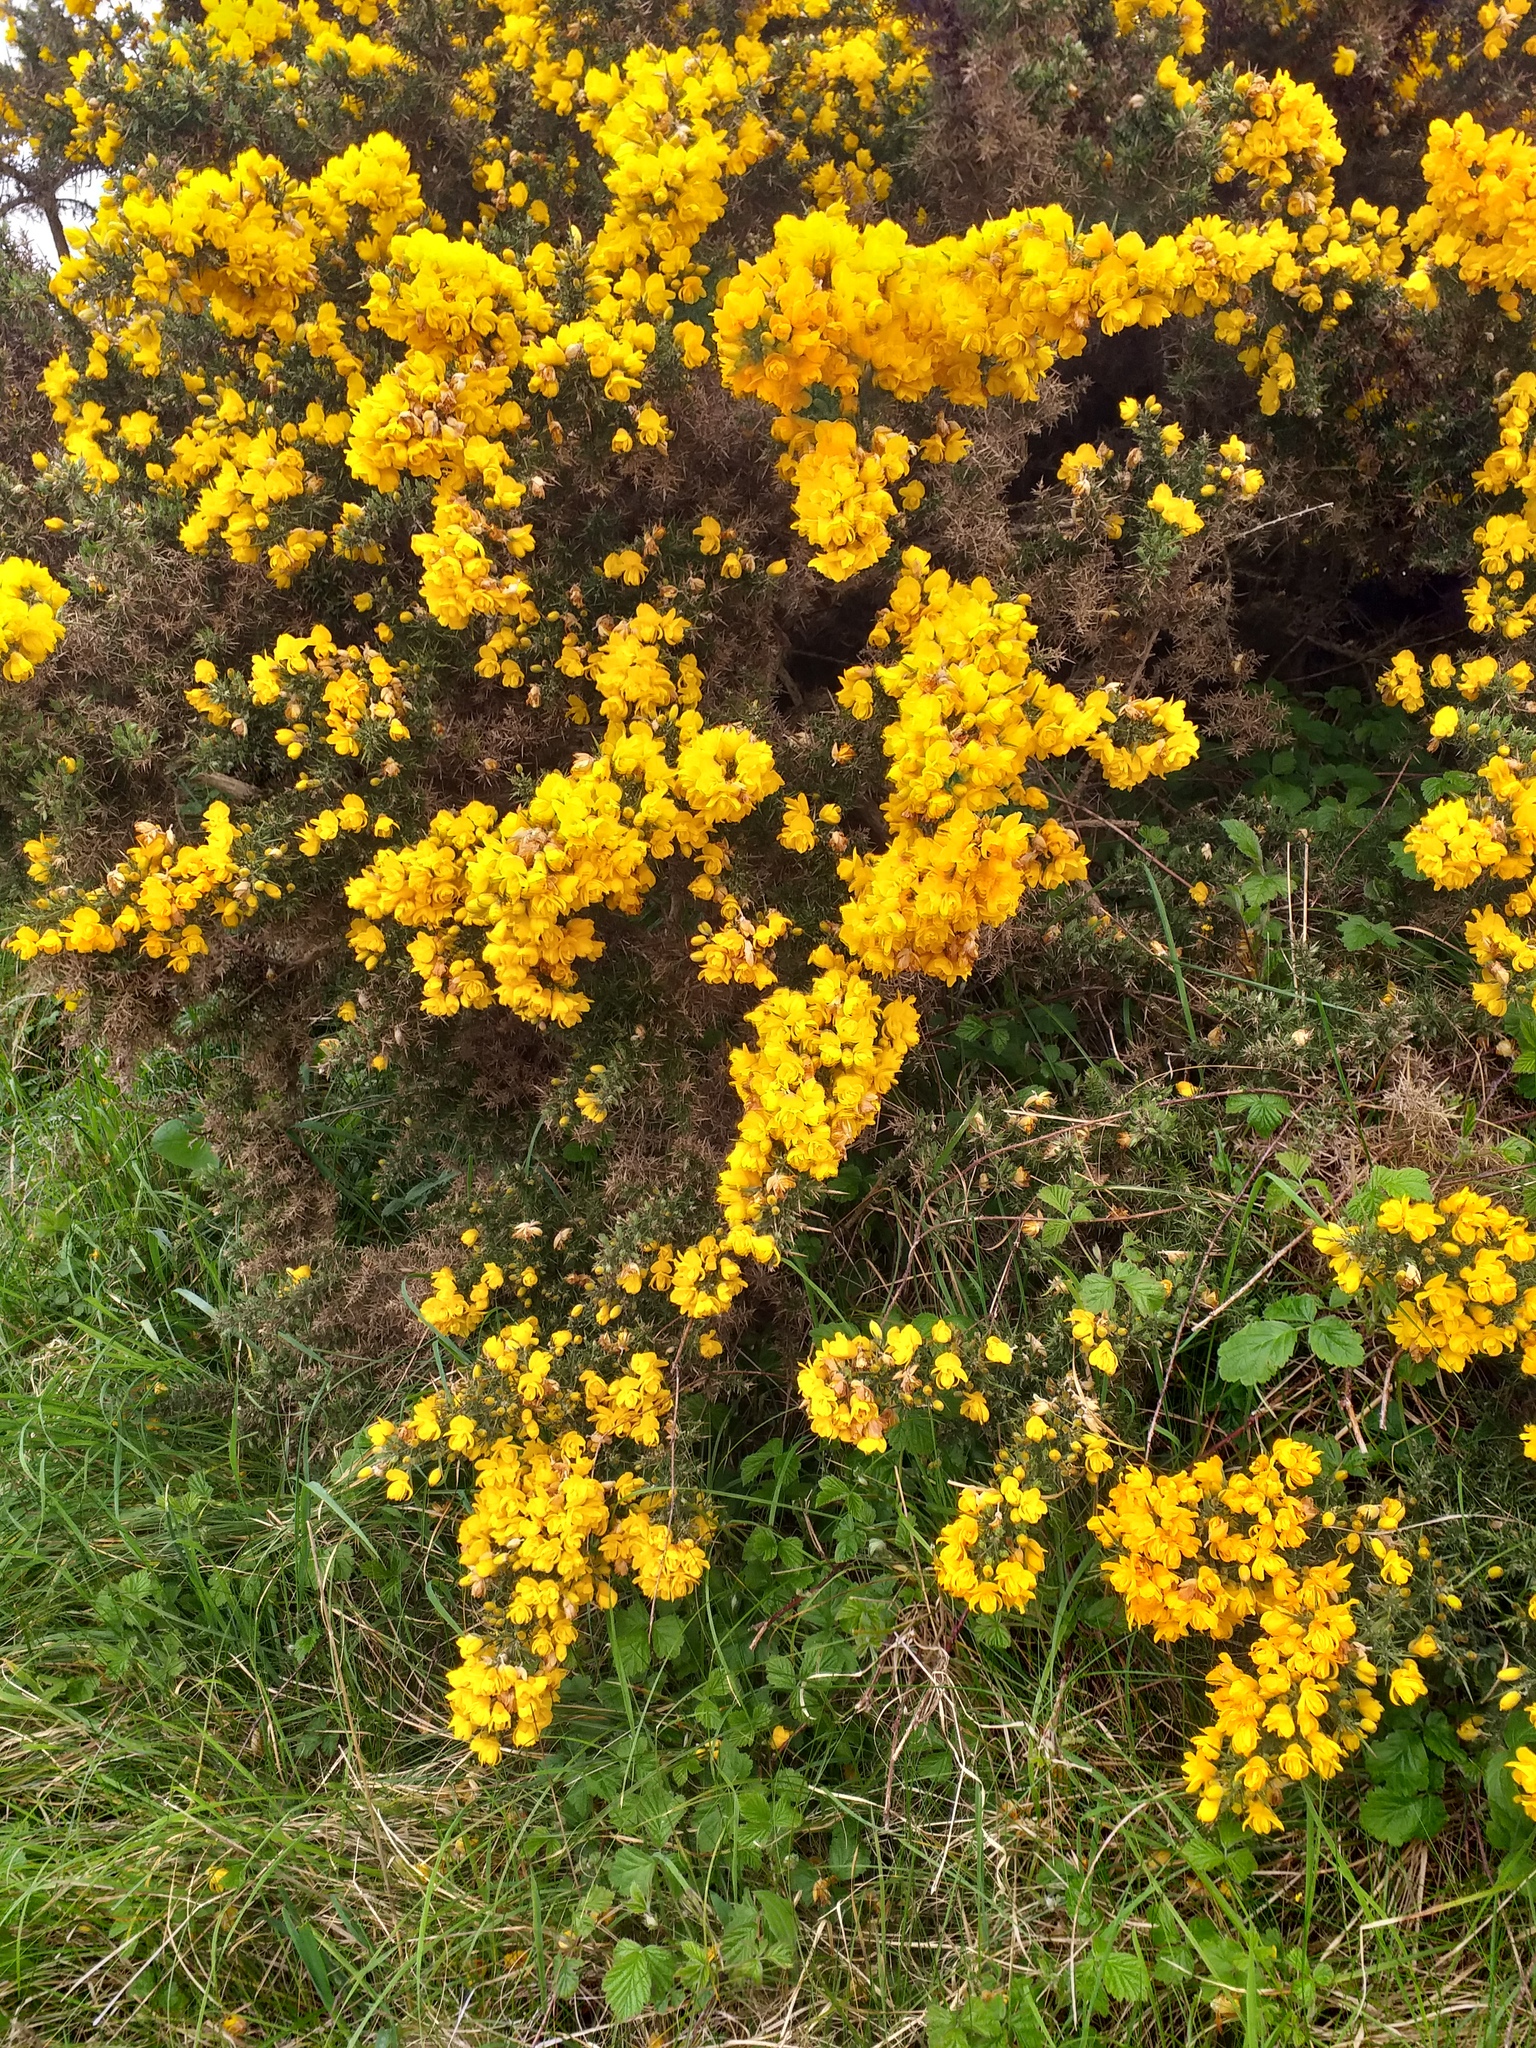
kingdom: Plantae
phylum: Tracheophyta
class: Magnoliopsida
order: Fabales
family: Fabaceae
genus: Ulex
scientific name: Ulex europaeus
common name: Common gorse
